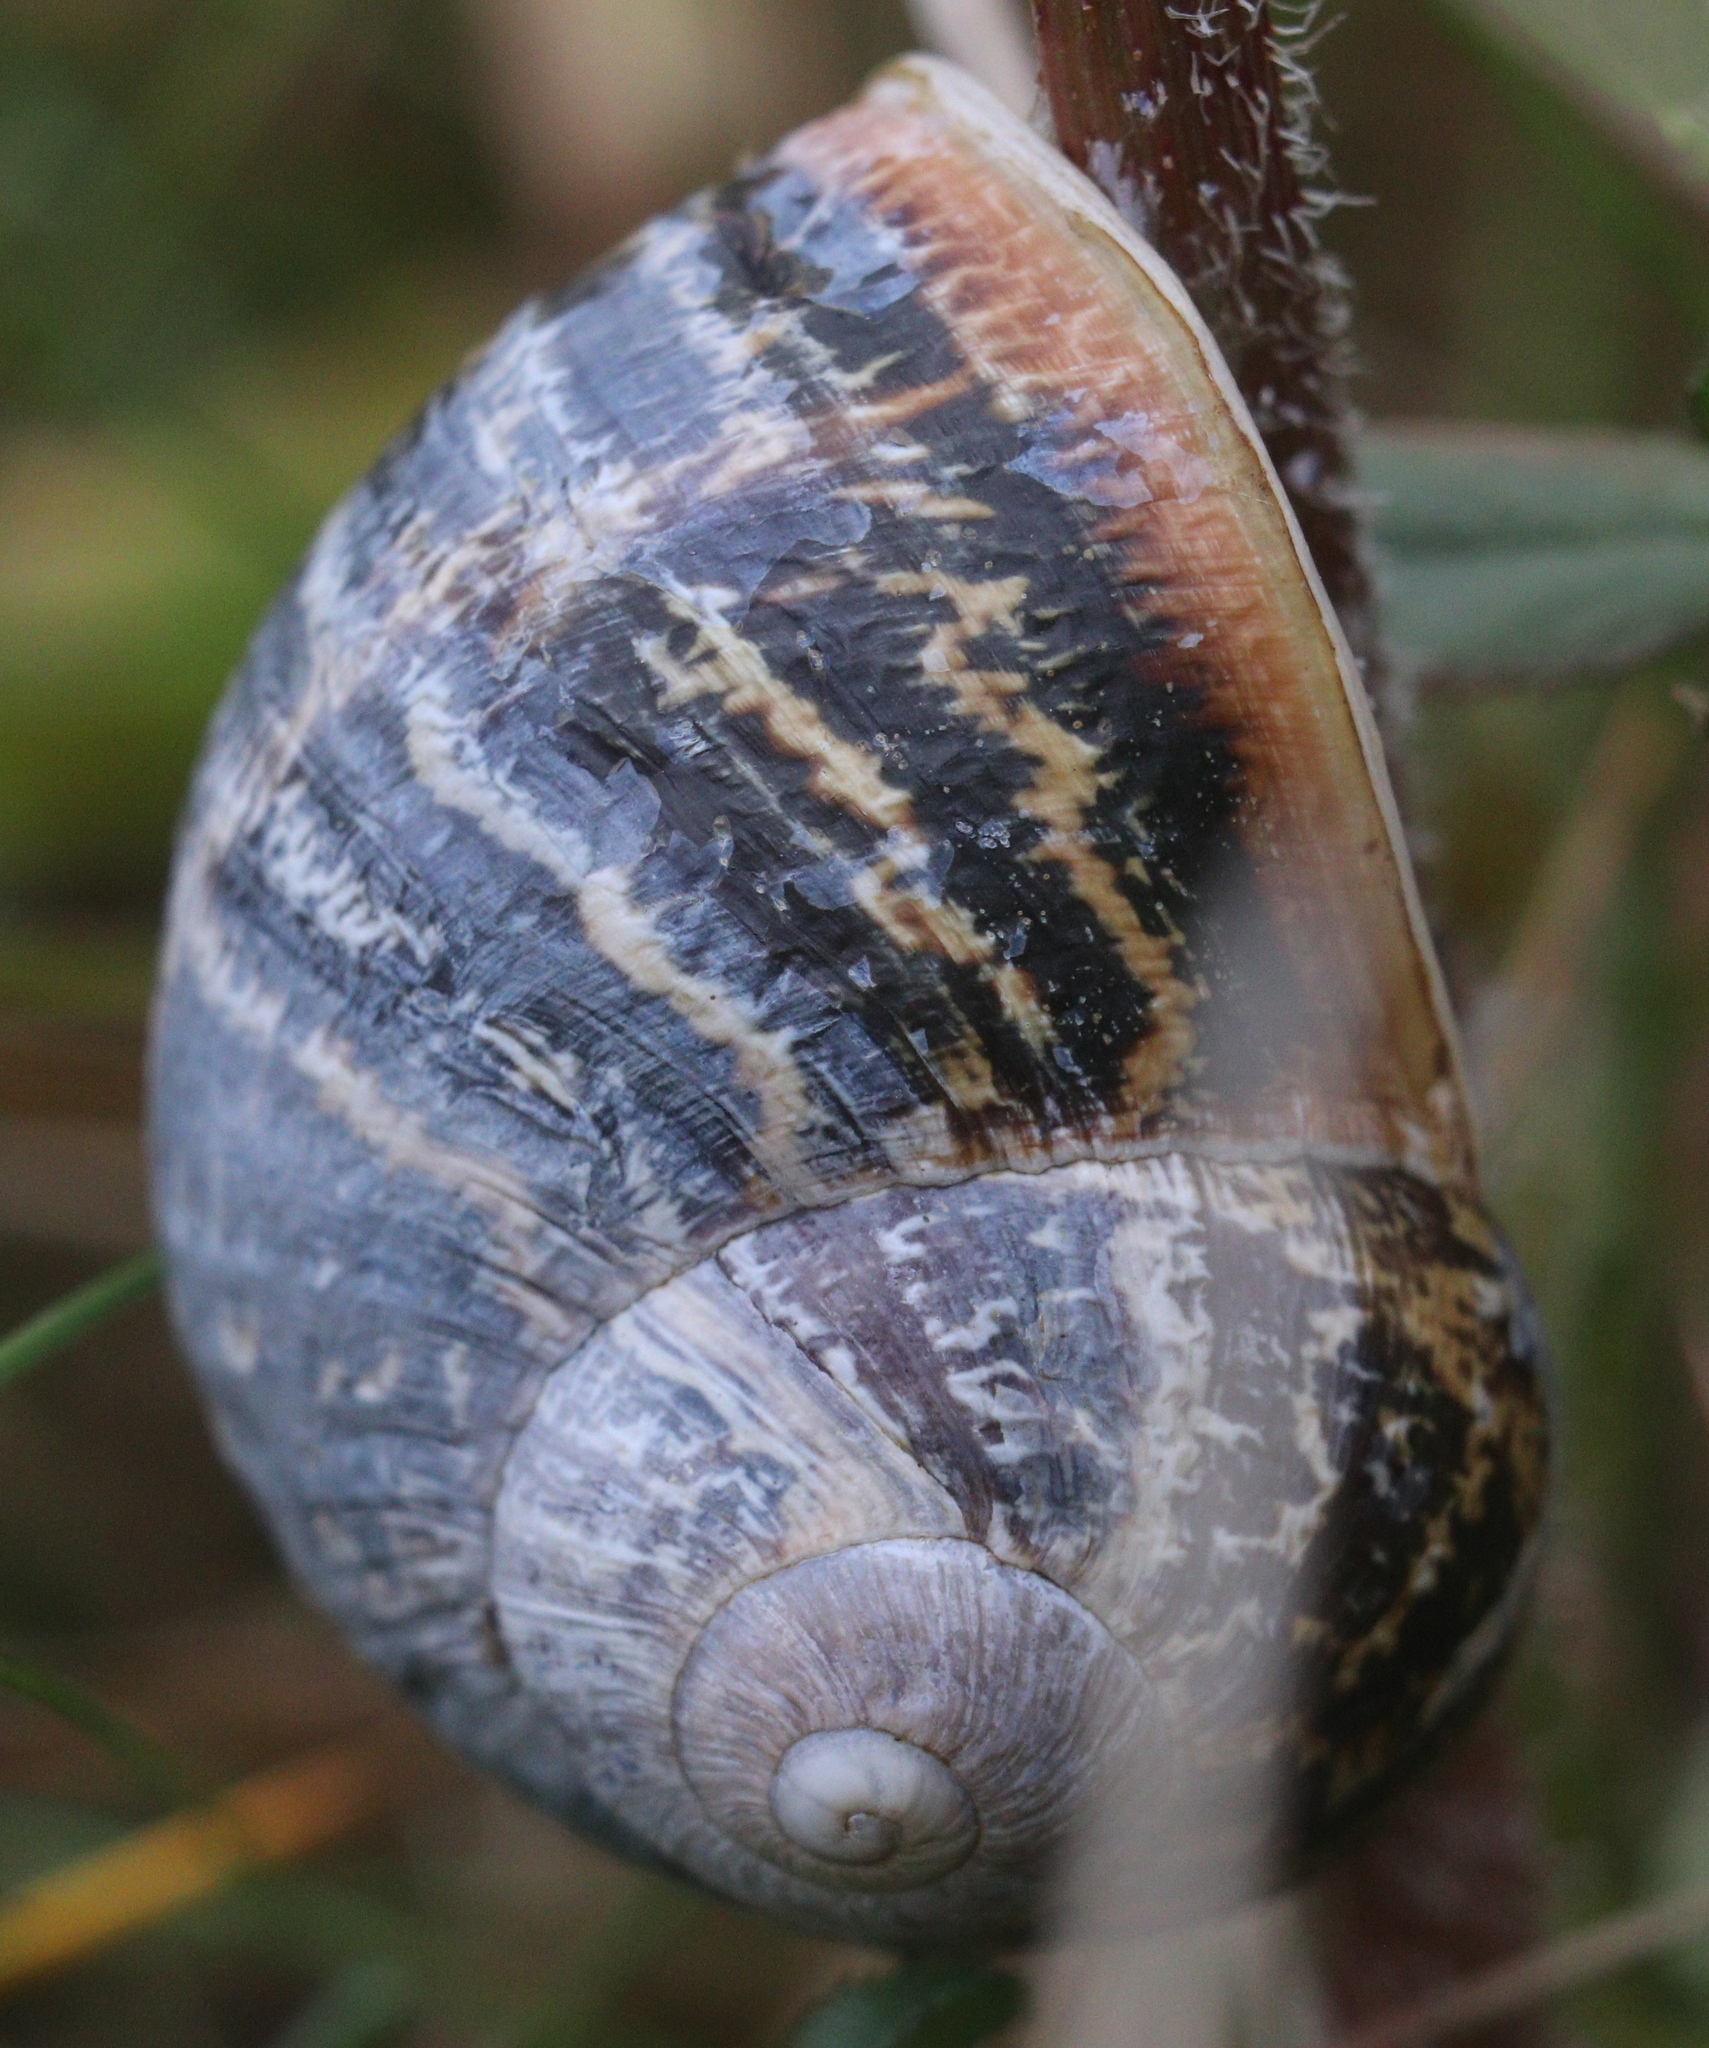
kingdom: Animalia
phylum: Mollusca
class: Gastropoda
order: Stylommatophora
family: Helicidae
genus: Cornu
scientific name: Cornu aspersum
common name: Brown garden snail
